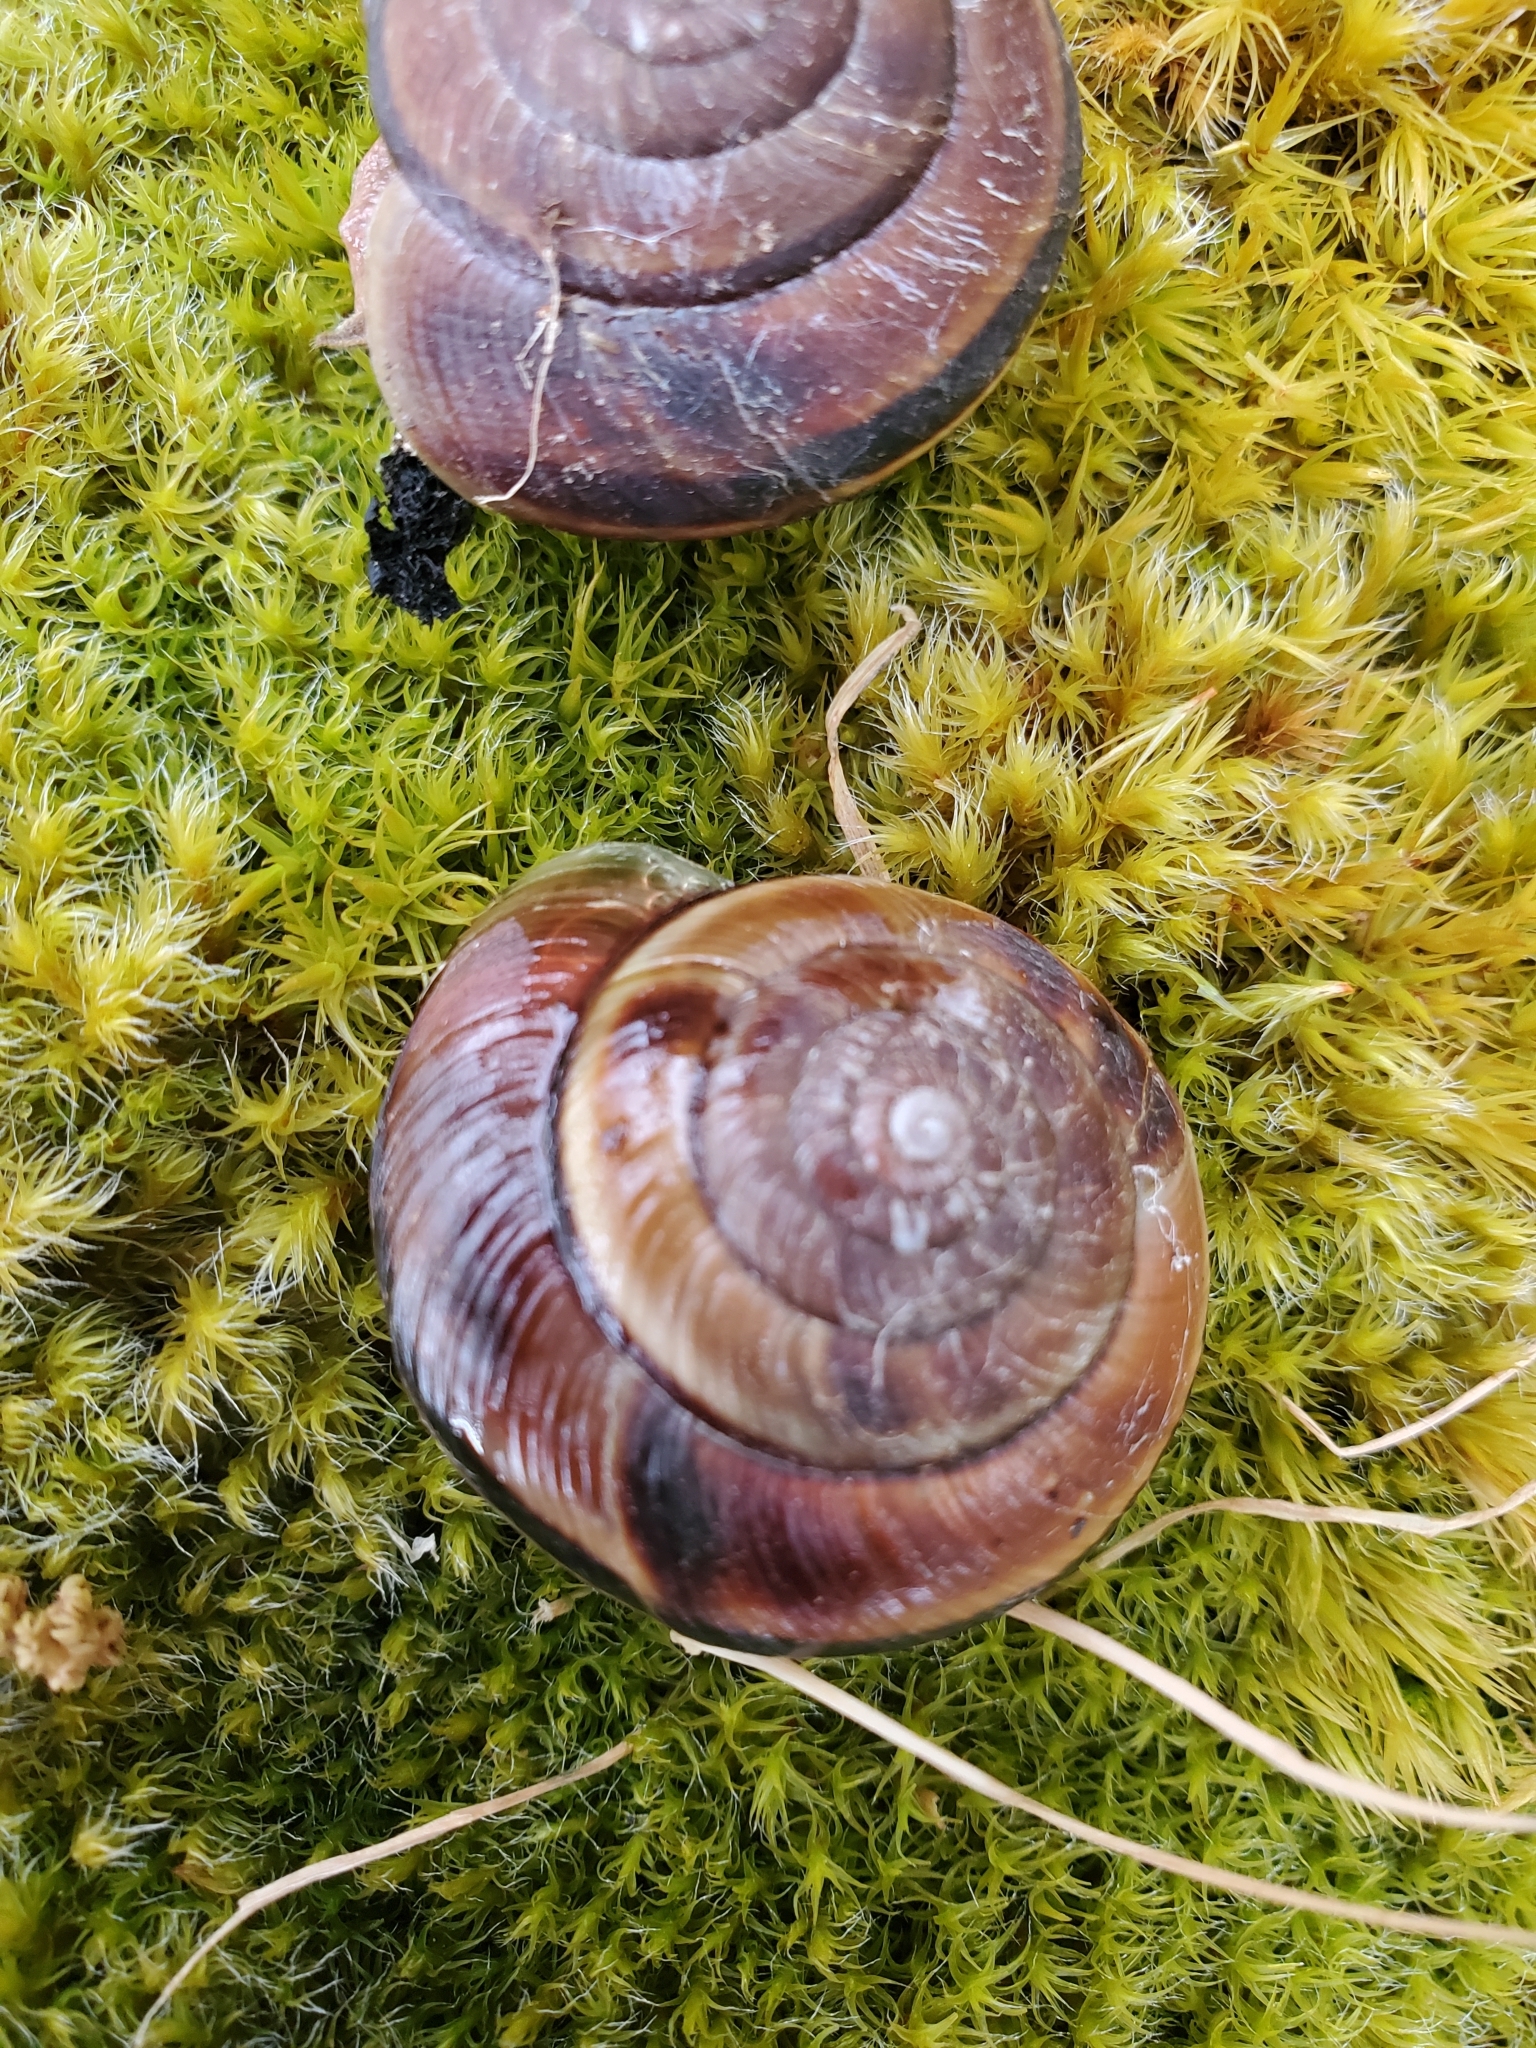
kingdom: Animalia
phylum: Mollusca
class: Gastropoda
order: Stylommatophora
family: Xanthonychidae
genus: Monadenia
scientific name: Monadenia fidelis
